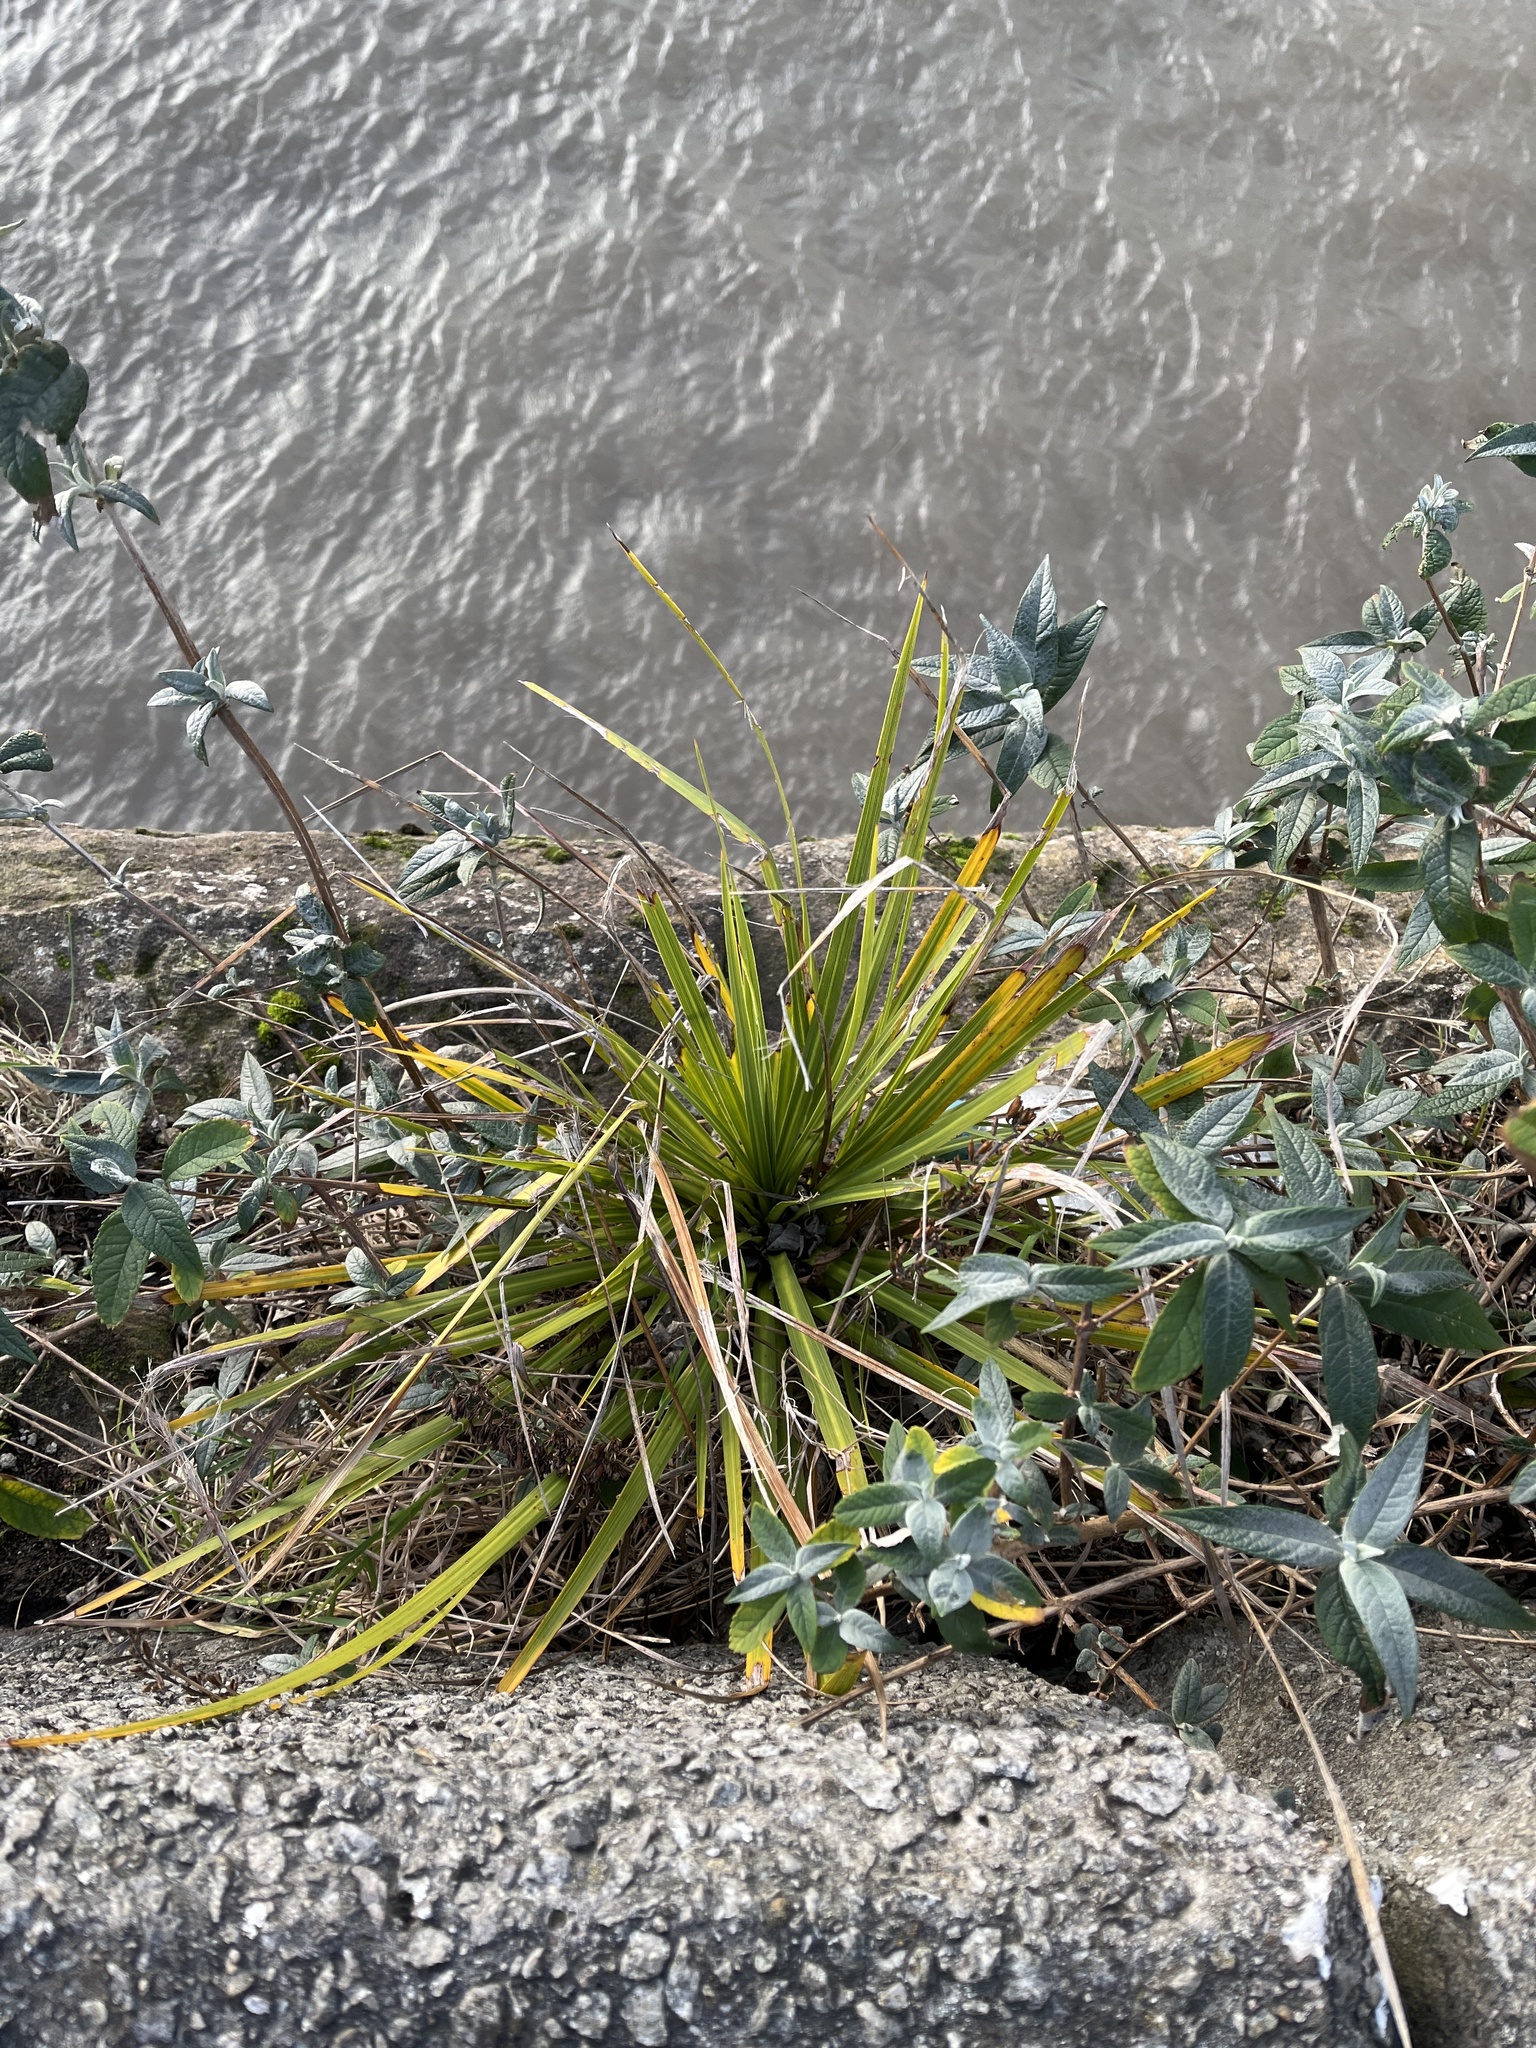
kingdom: Plantae
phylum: Tracheophyta
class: Liliopsida
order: Poales
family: Poaceae
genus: Austroderia
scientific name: Austroderia richardii
